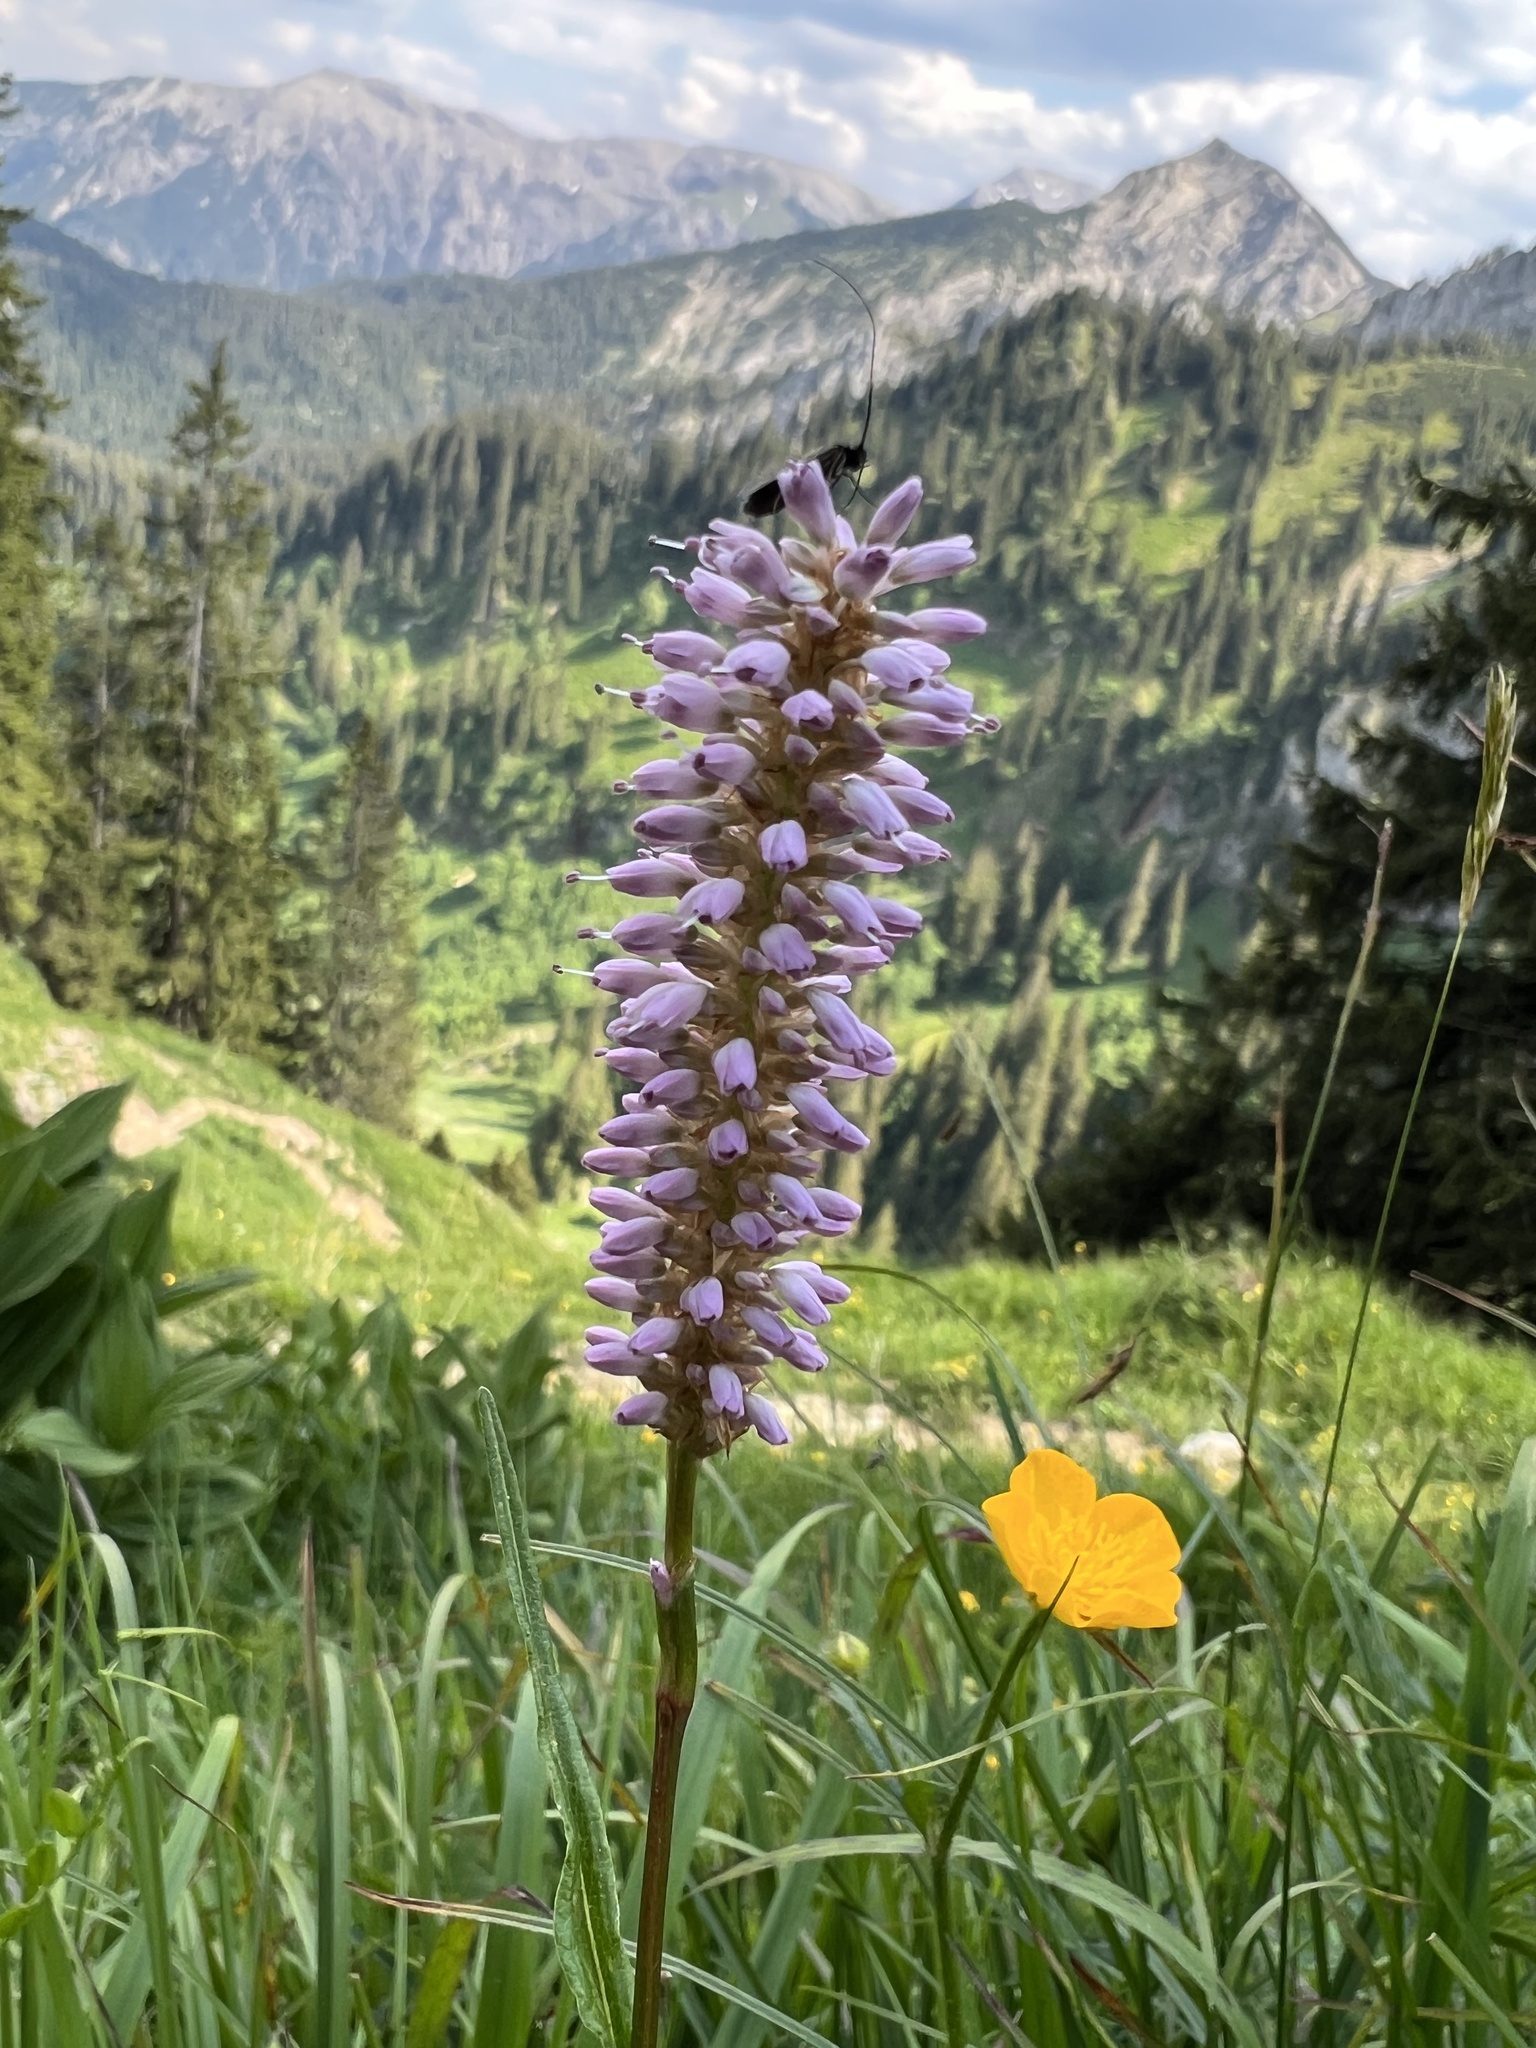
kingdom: Plantae
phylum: Tracheophyta
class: Magnoliopsida
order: Caryophyllales
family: Polygonaceae
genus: Bistorta
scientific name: Bistorta officinalis
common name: Common bistort
